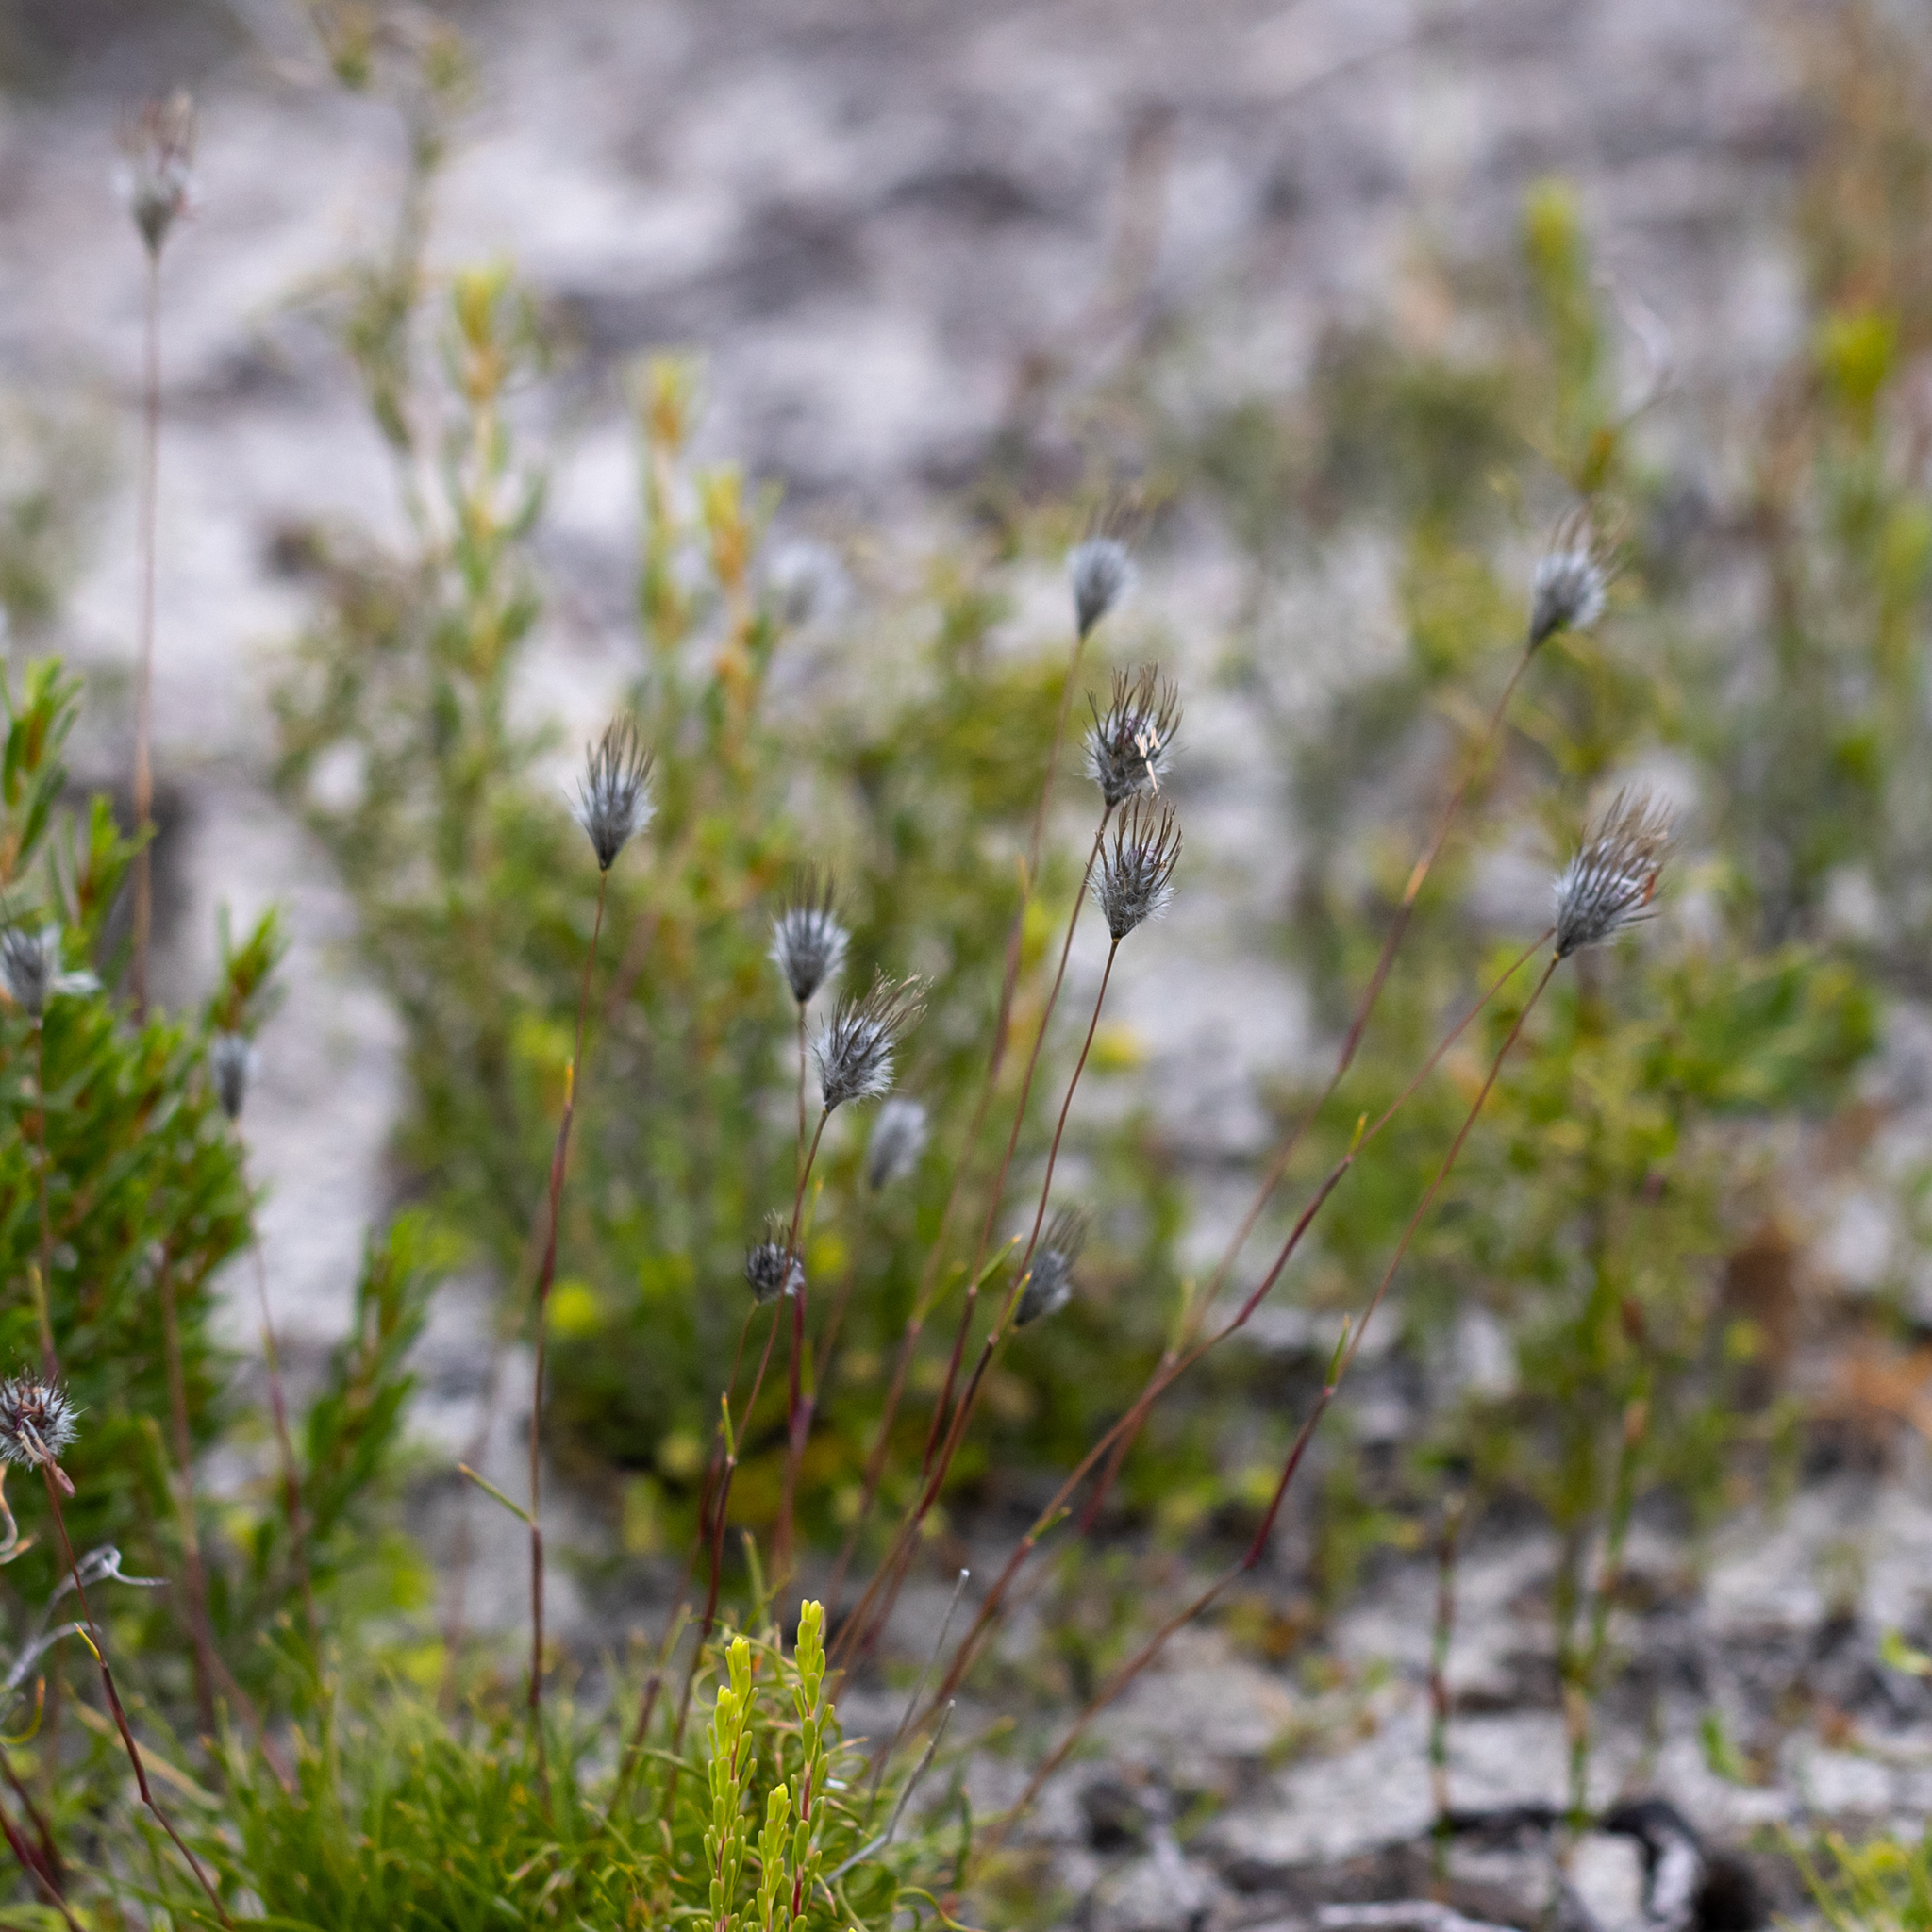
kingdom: Plantae
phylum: Tracheophyta
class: Liliopsida
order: Poales
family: Poaceae
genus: Amphipogon
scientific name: Amphipogon turbinatus
